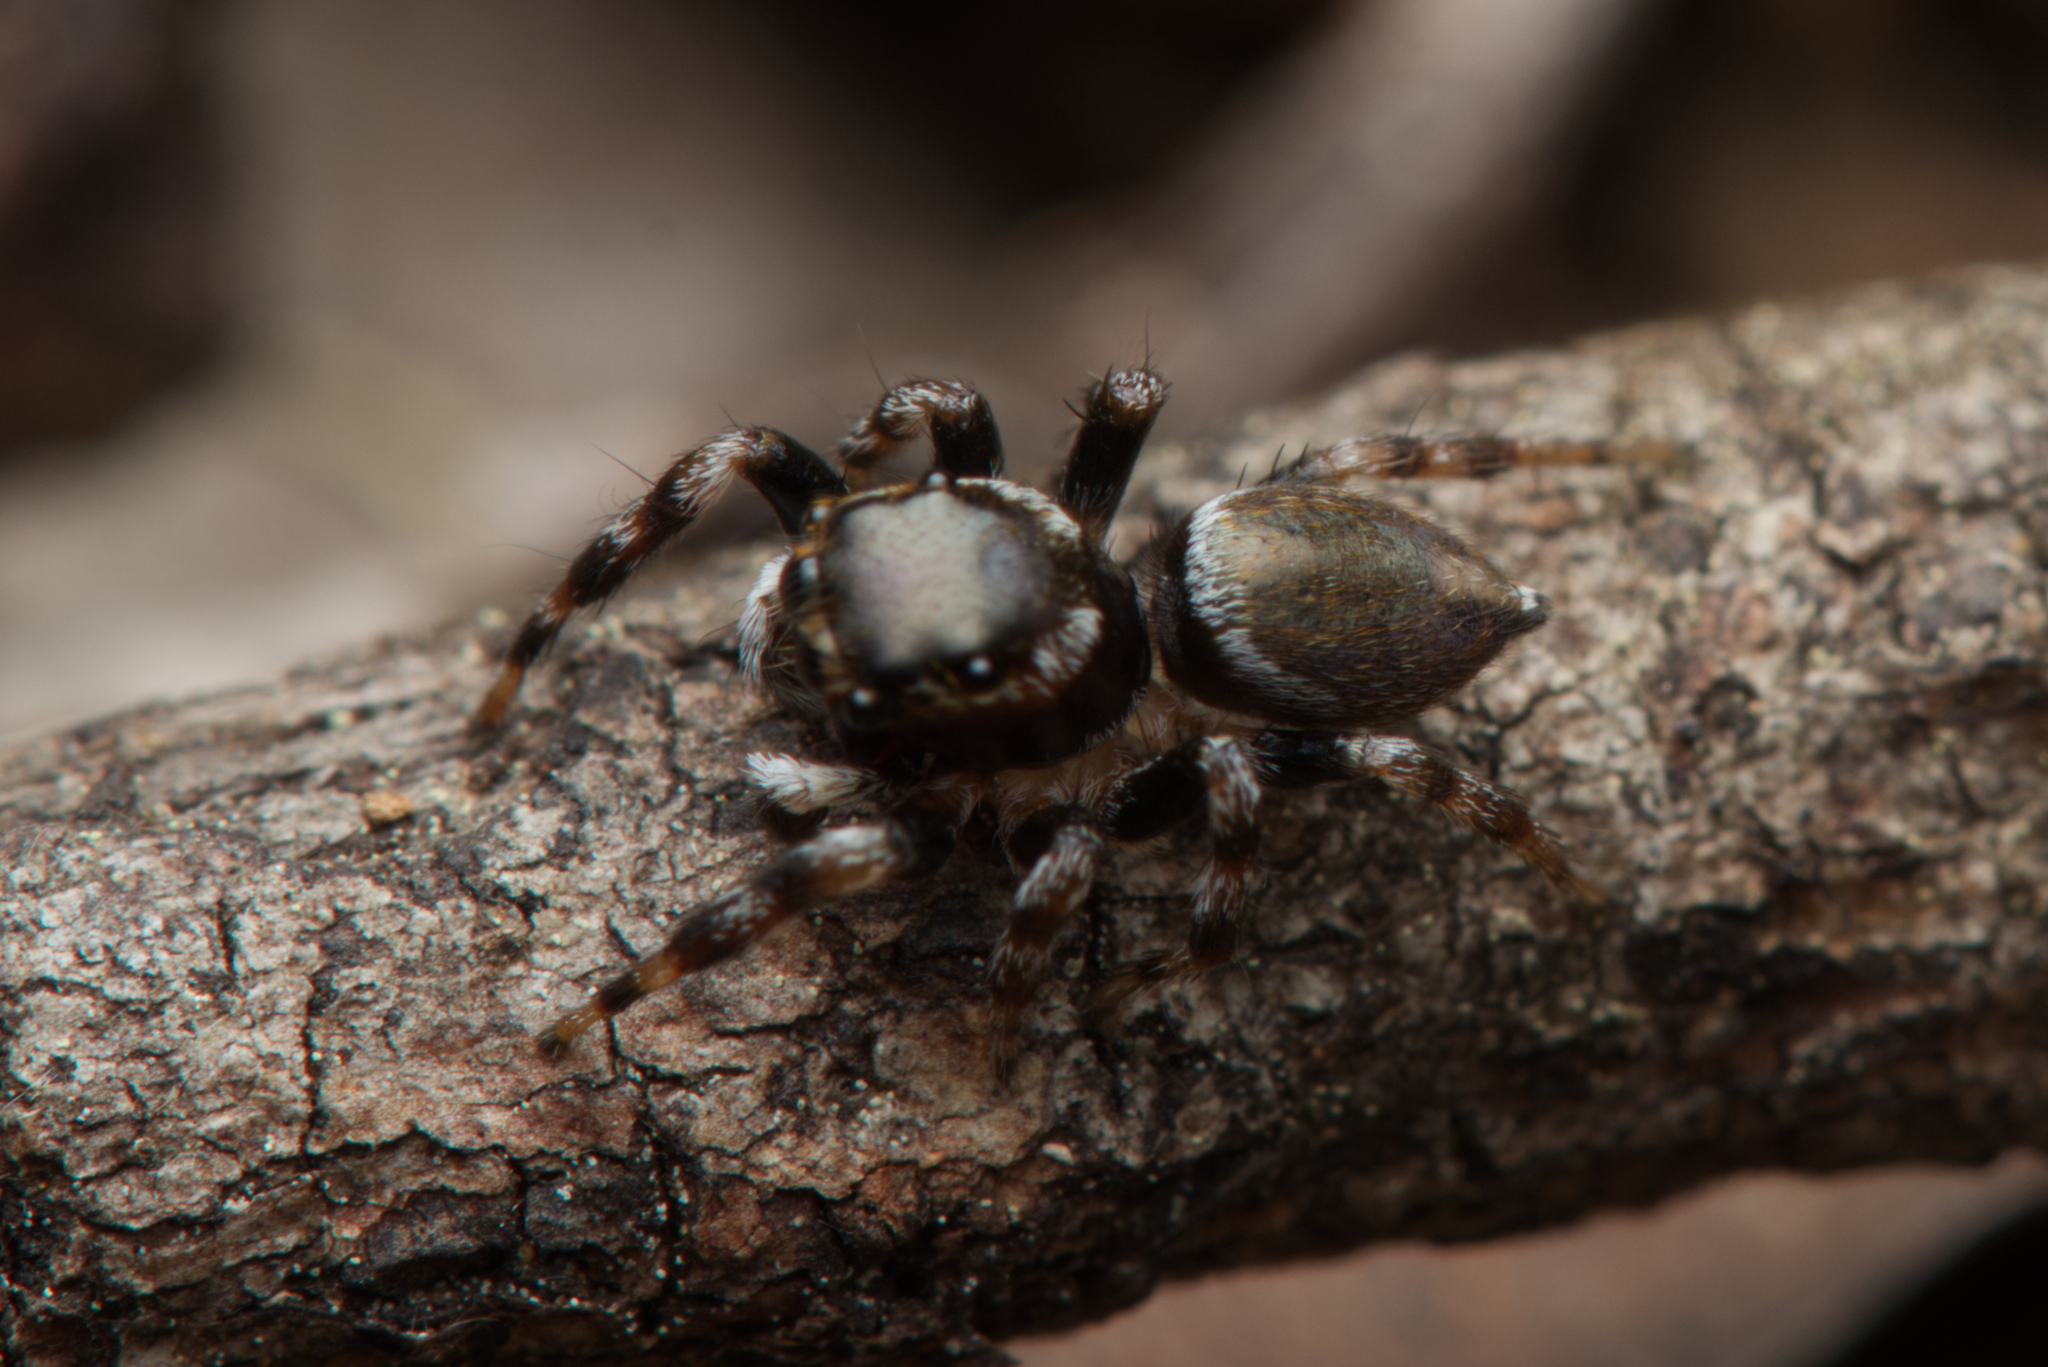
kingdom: Animalia
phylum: Arthropoda
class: Arachnida
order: Araneae
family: Salticidae
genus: Maratus
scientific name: Maratus scutulatus
